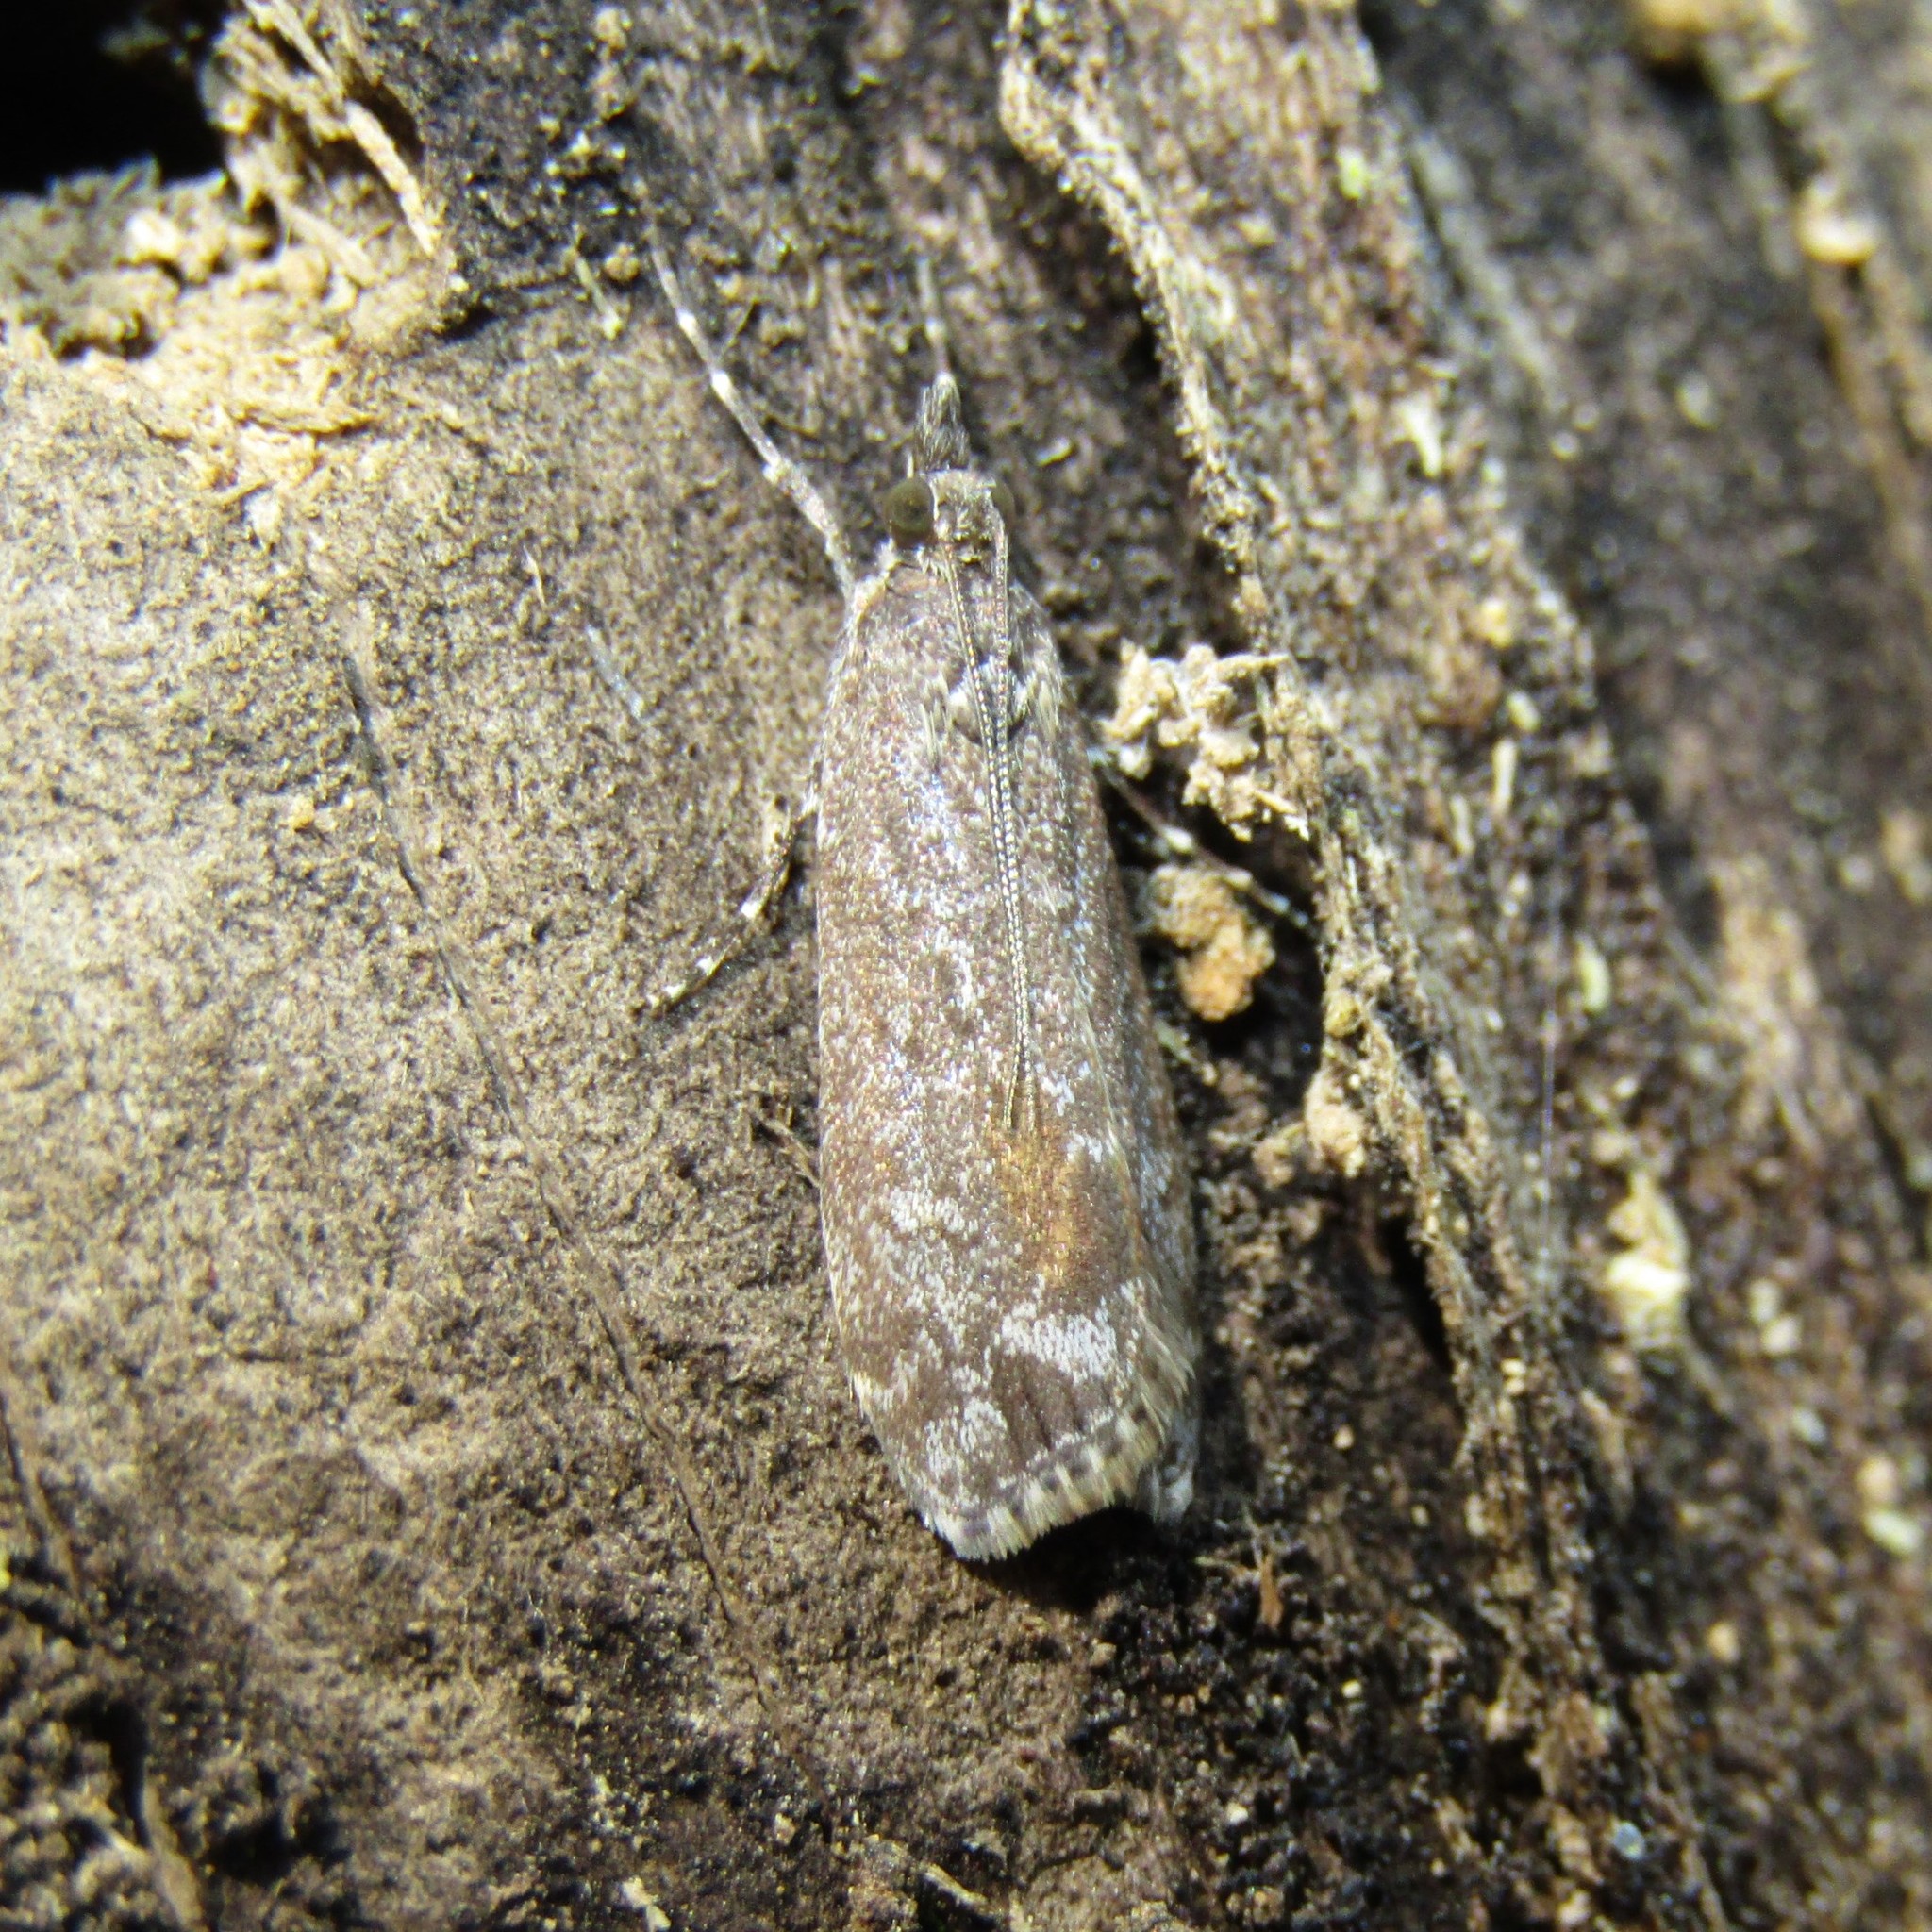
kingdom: Animalia
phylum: Arthropoda
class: Insecta
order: Lepidoptera
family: Crambidae
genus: Eudonia
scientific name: Eudonia submarginalis
